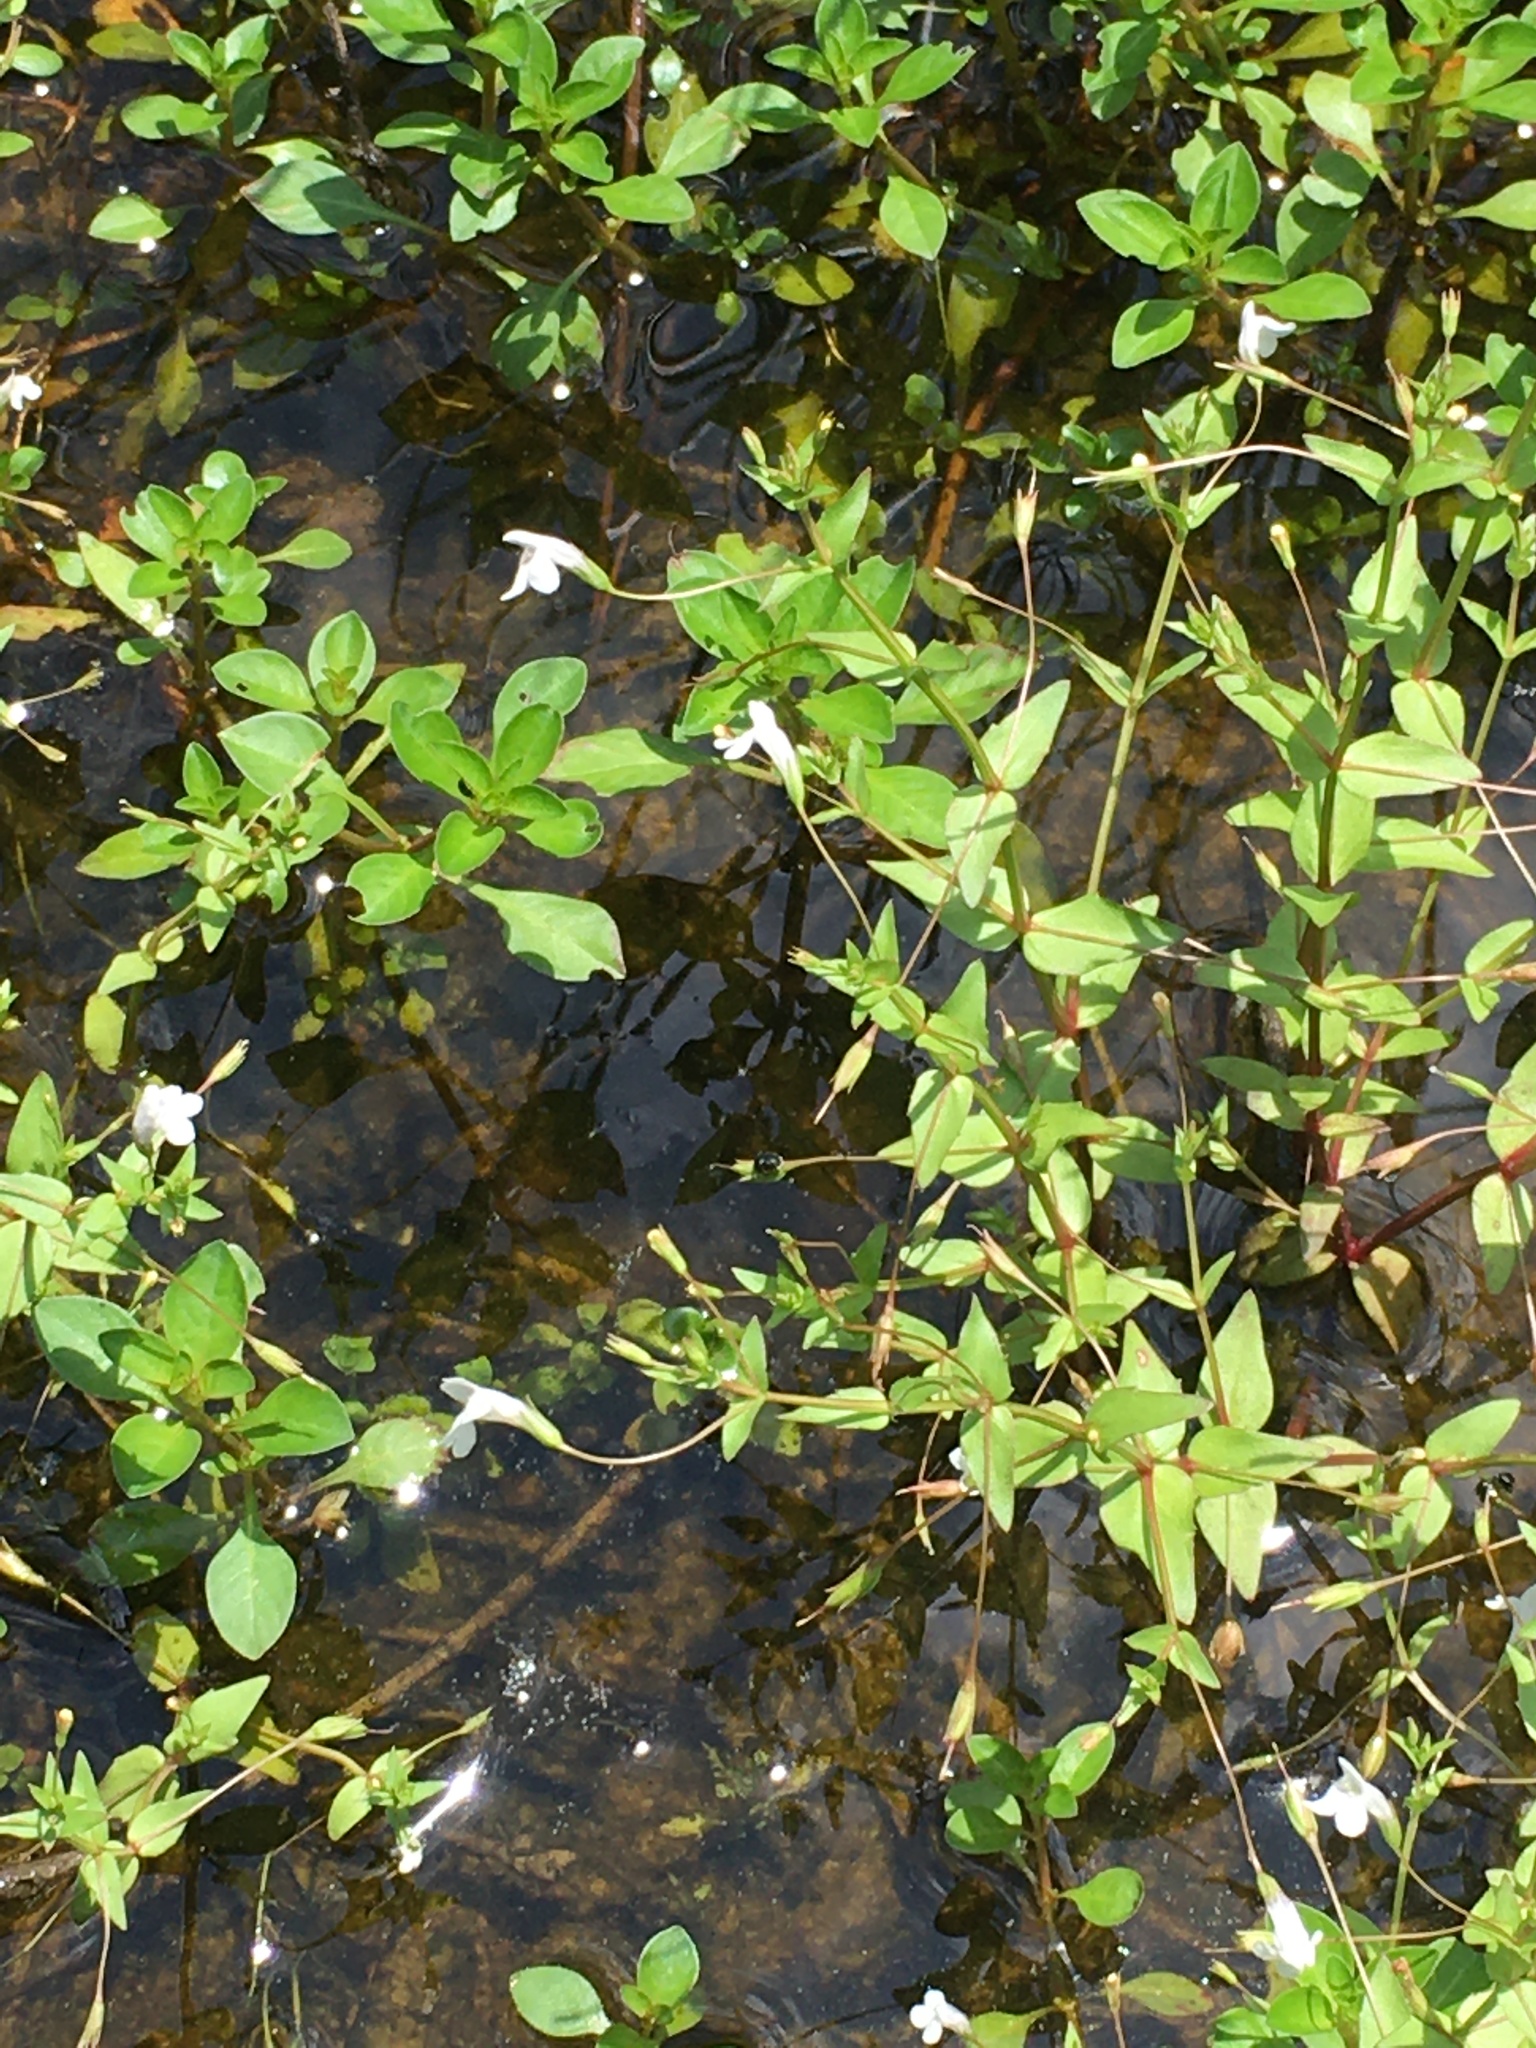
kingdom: Plantae
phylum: Tracheophyta
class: Magnoliopsida
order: Lamiales
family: Linderniaceae
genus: Lindernia
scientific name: Lindernia dubia
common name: Annual false pimpernel
